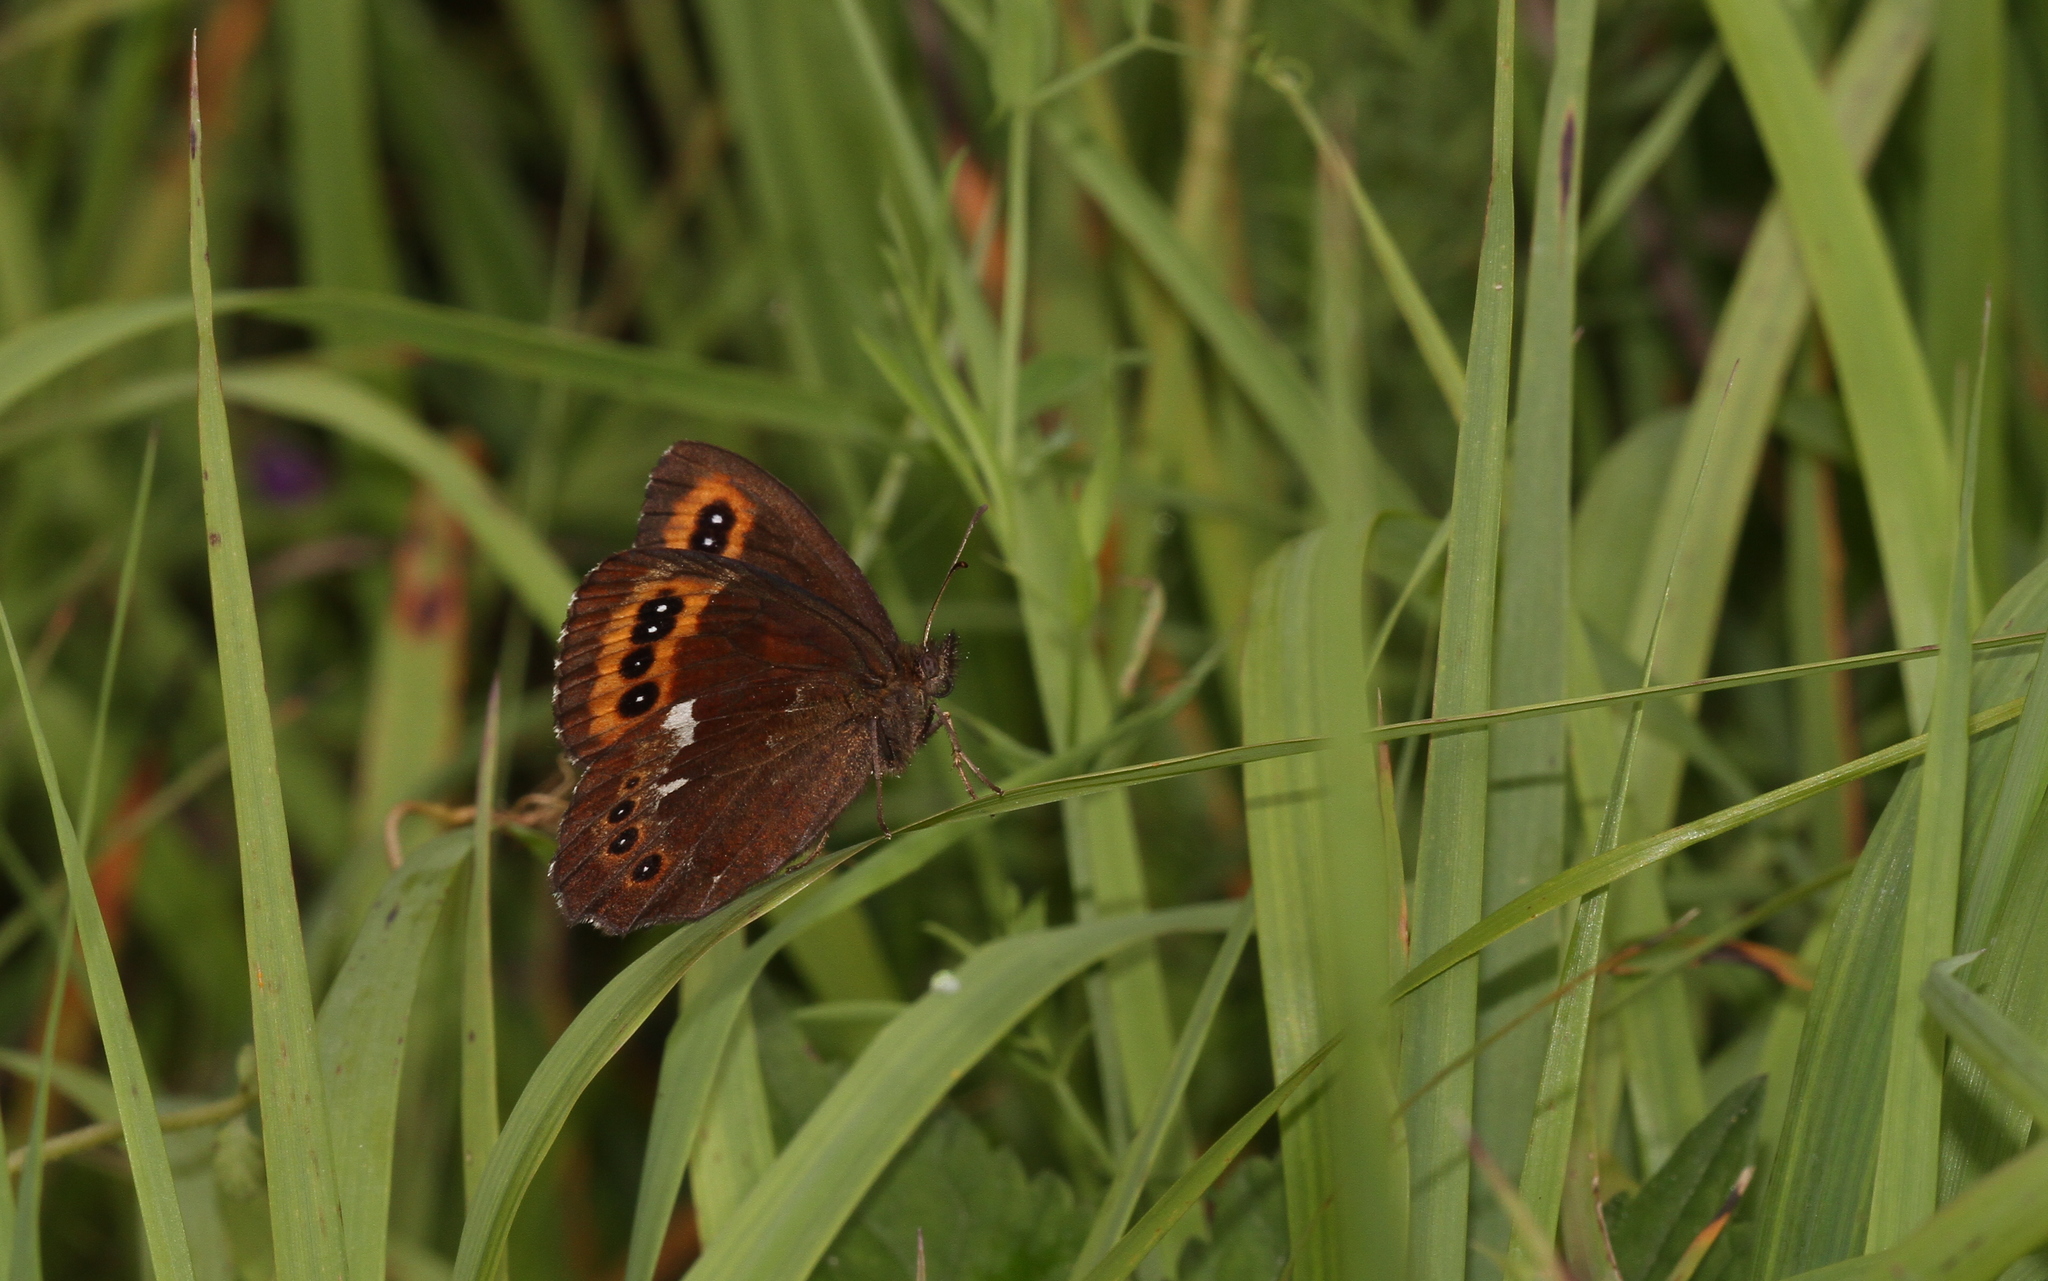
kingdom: Animalia
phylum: Arthropoda
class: Insecta
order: Lepidoptera
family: Nymphalidae
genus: Erebia
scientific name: Erebia ligea
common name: Arran brown
